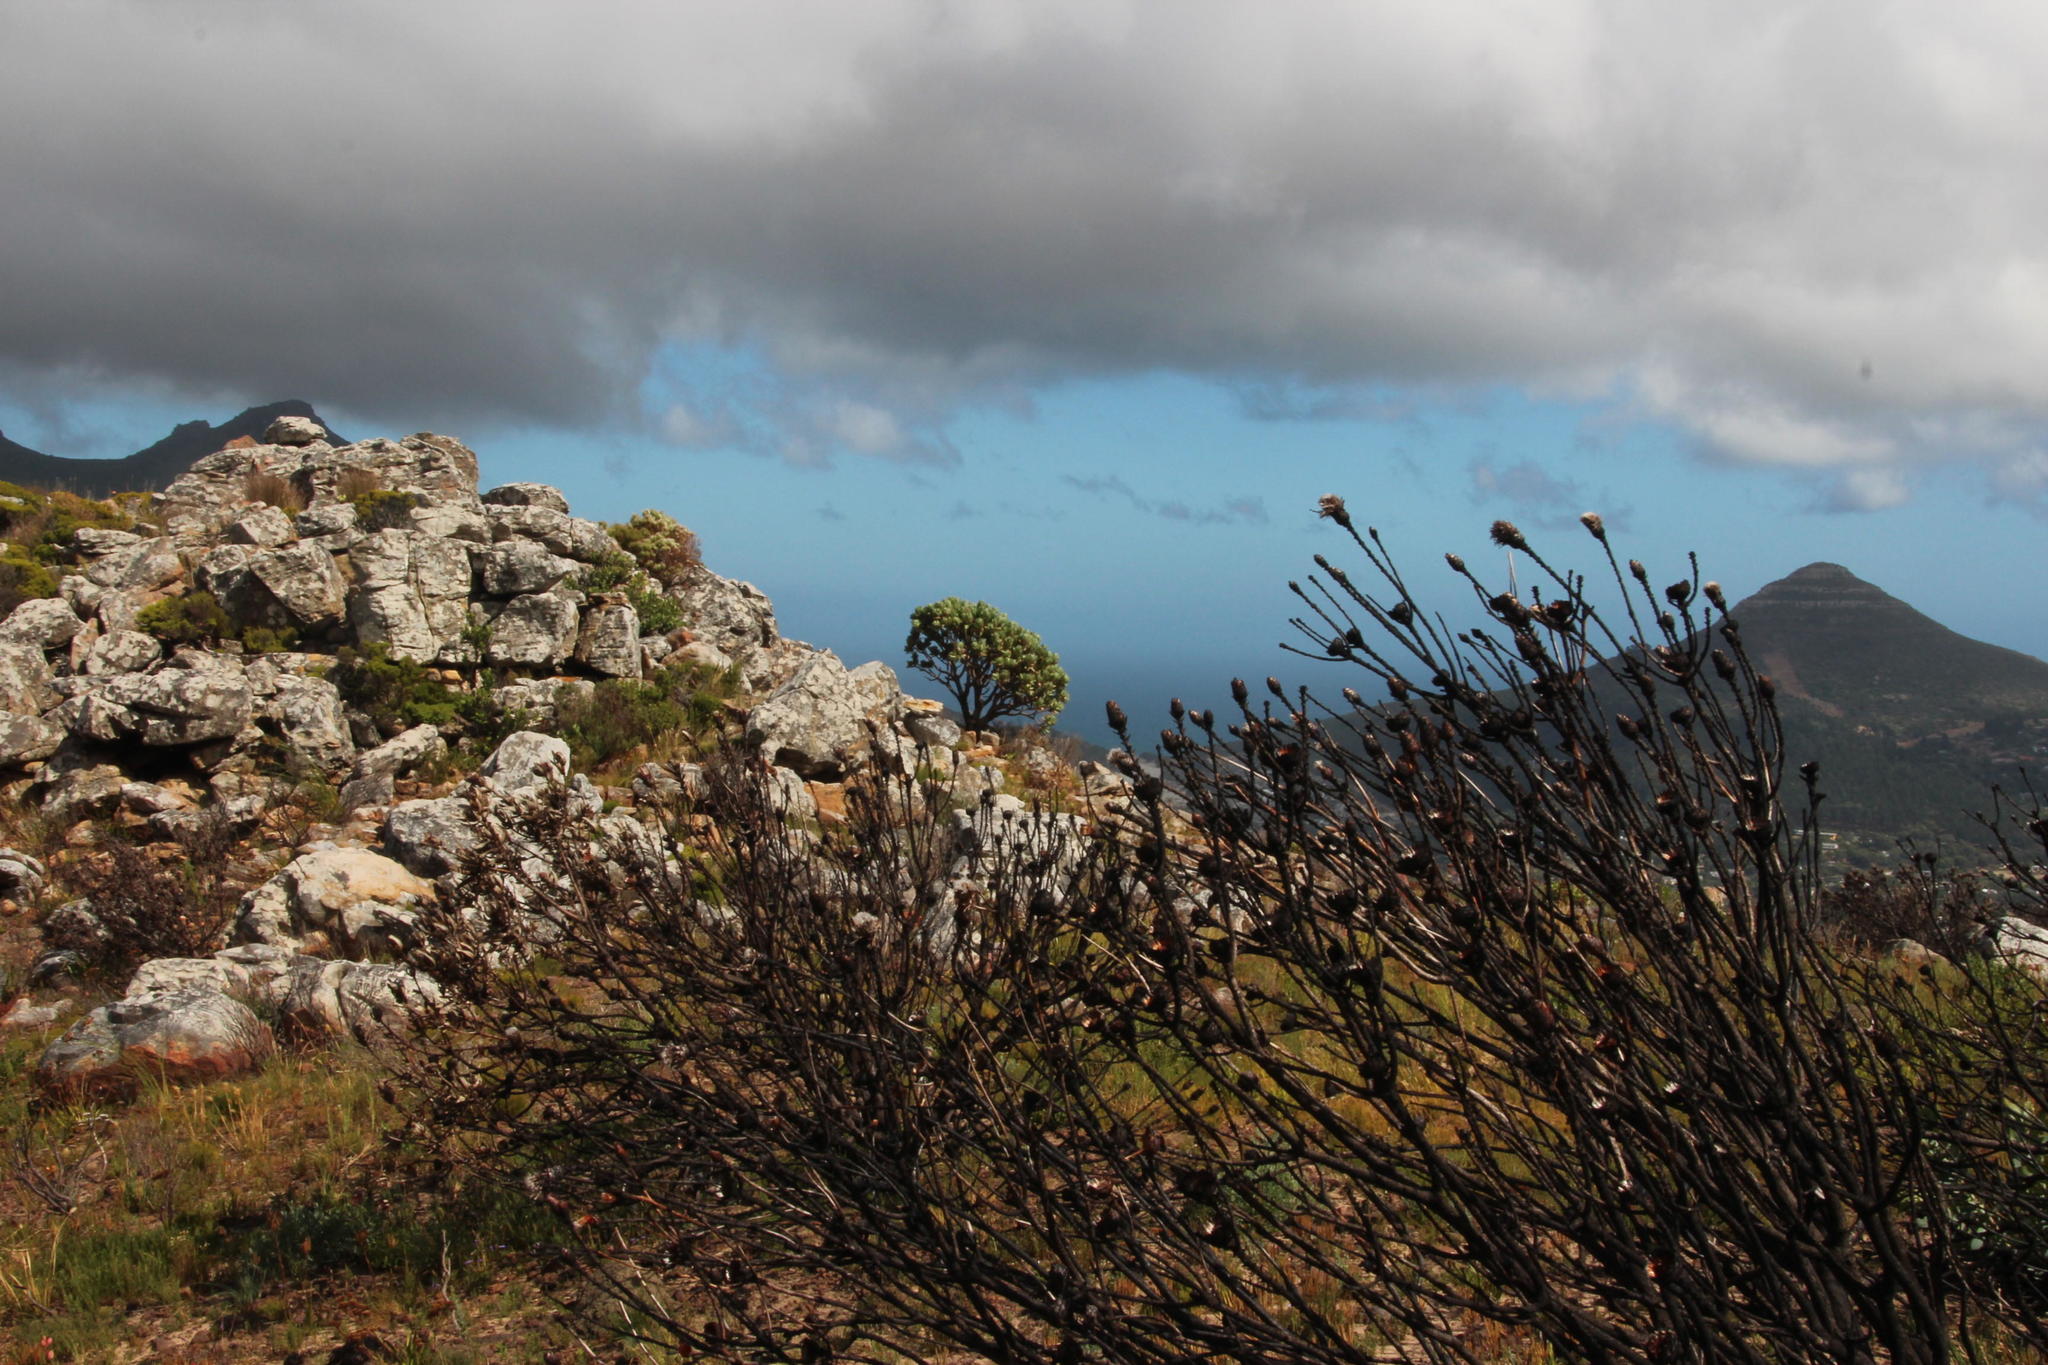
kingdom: Plantae
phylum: Tracheophyta
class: Magnoliopsida
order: Proteales
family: Proteaceae
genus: Leucospermum
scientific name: Leucospermum conocarpodendron
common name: Tree pincushion
